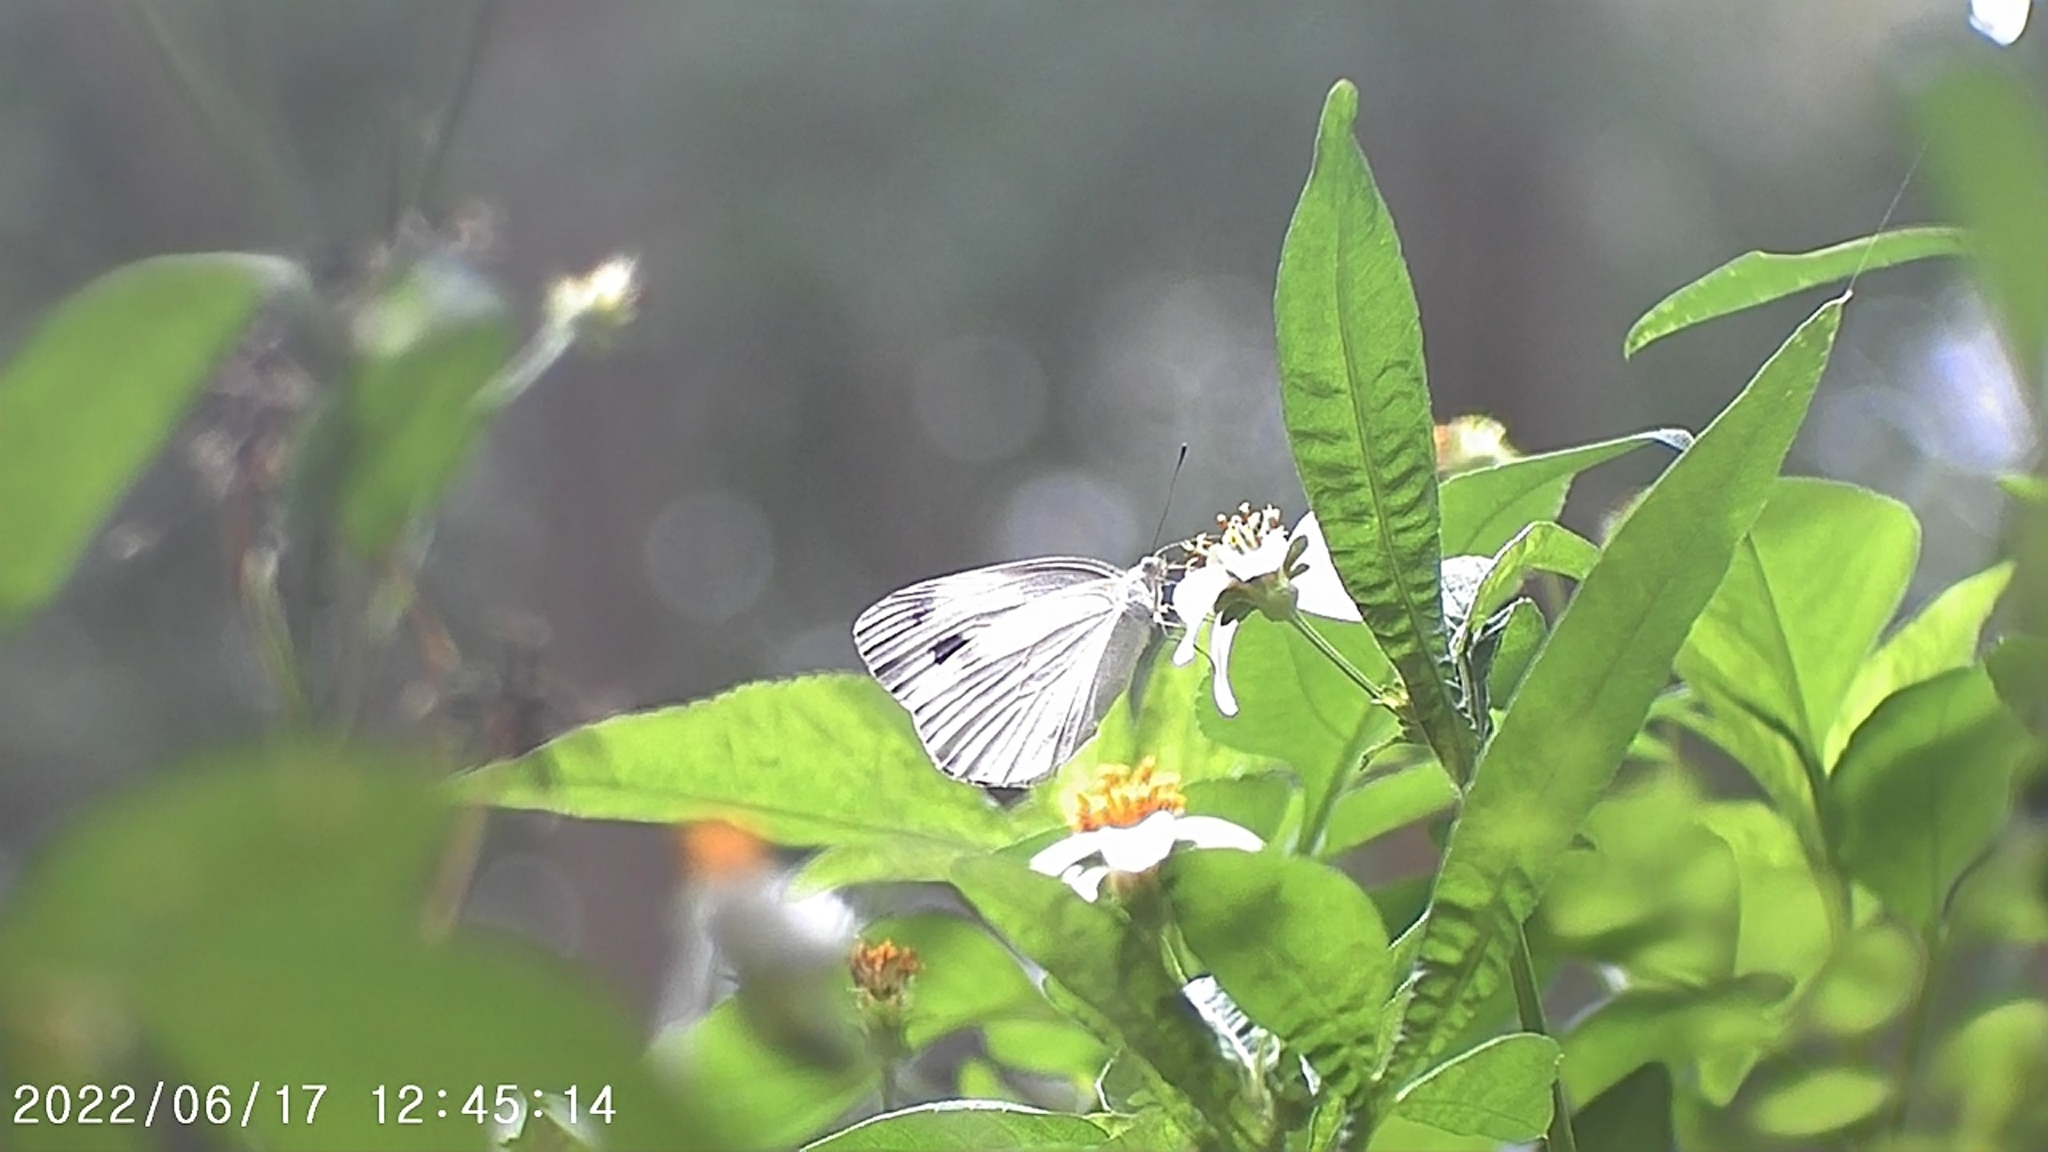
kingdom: Animalia
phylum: Arthropoda
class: Insecta
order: Lepidoptera
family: Pieridae
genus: Pieris
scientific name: Pieris canidia
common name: Indian cabbage white
